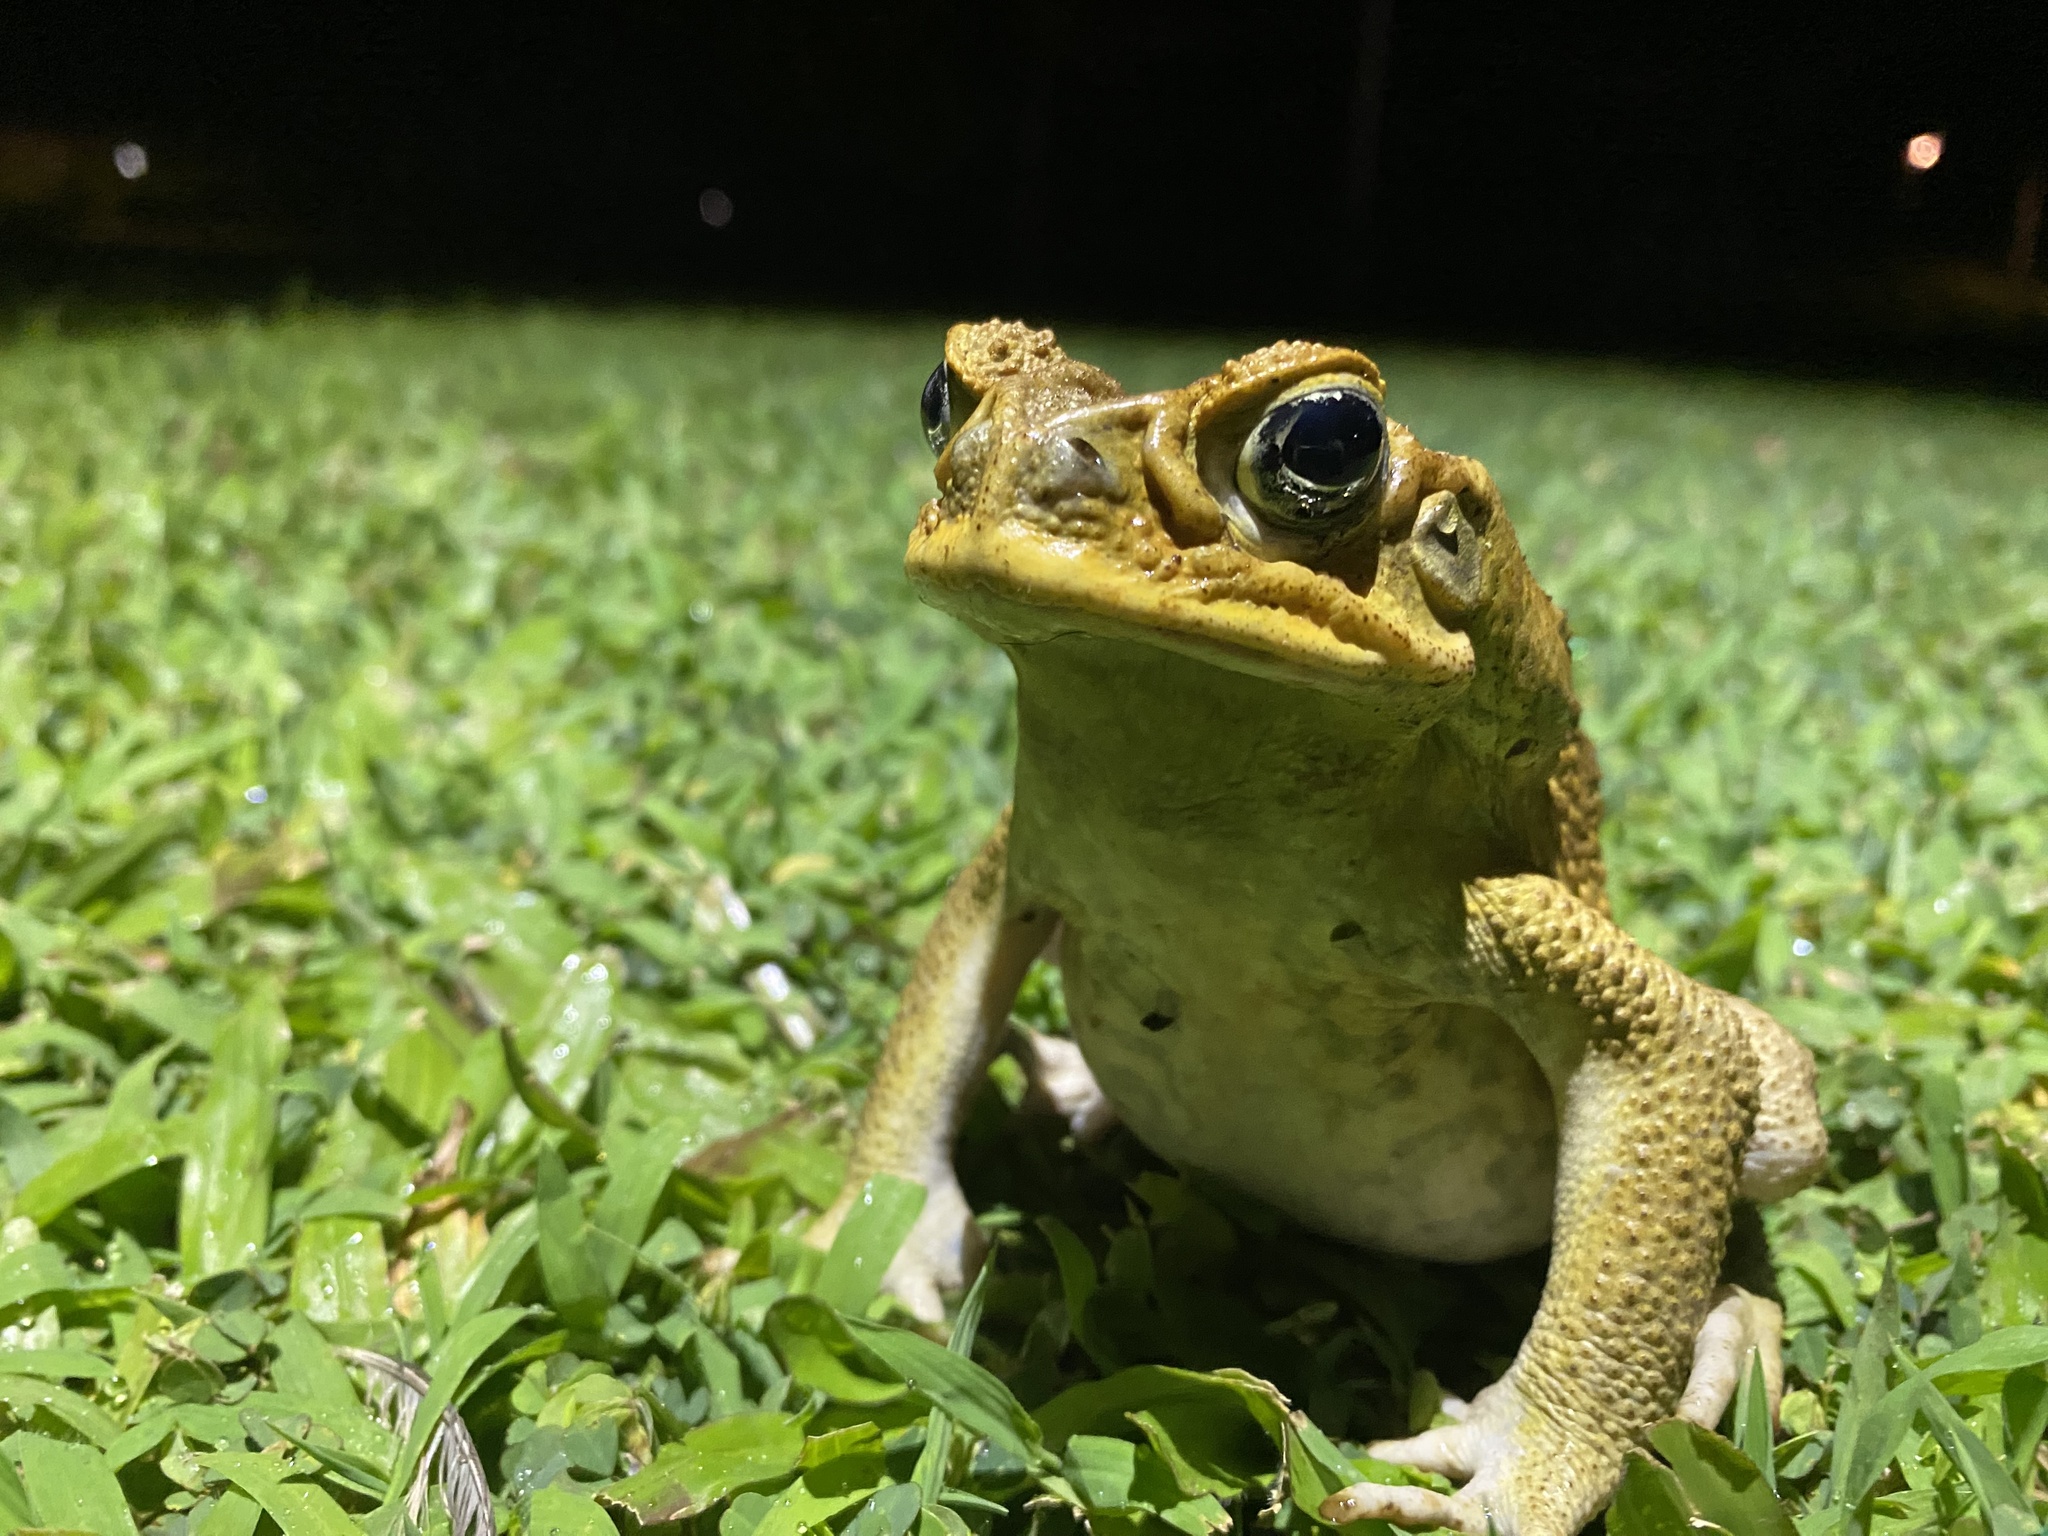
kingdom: Animalia
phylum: Chordata
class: Amphibia
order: Anura
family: Bufonidae
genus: Rhinella
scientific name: Rhinella marina
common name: Cane toad
